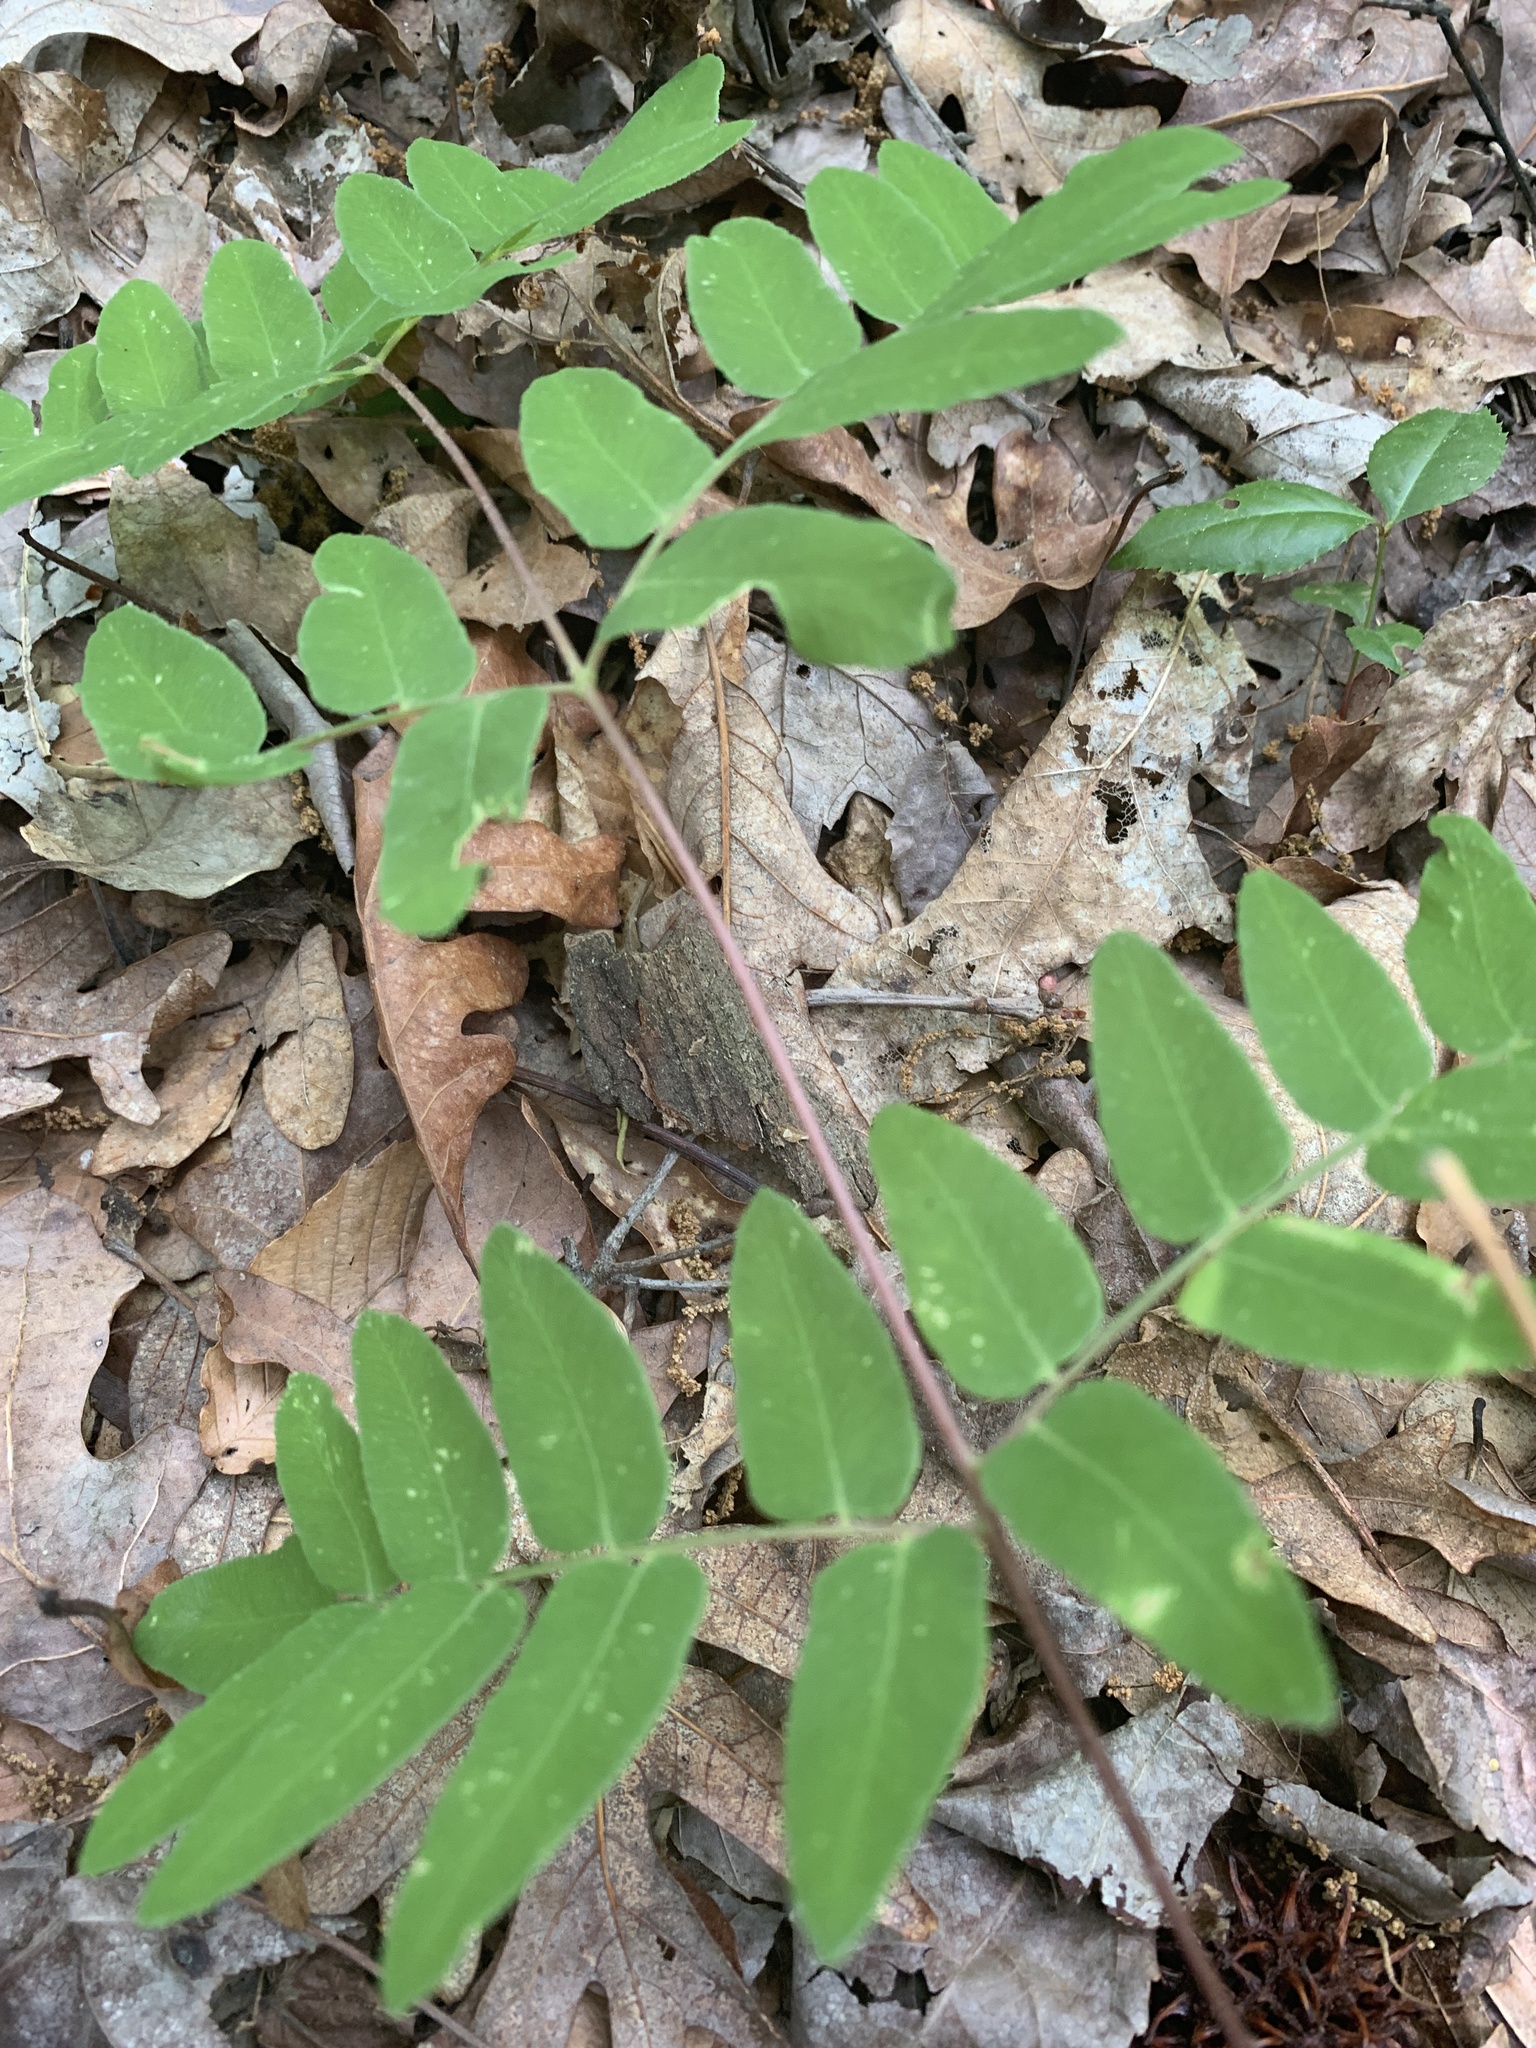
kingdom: Plantae
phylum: Tracheophyta
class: Polypodiopsida
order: Osmundales
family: Osmundaceae
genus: Osmunda
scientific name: Osmunda spectabilis
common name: American royal fern
